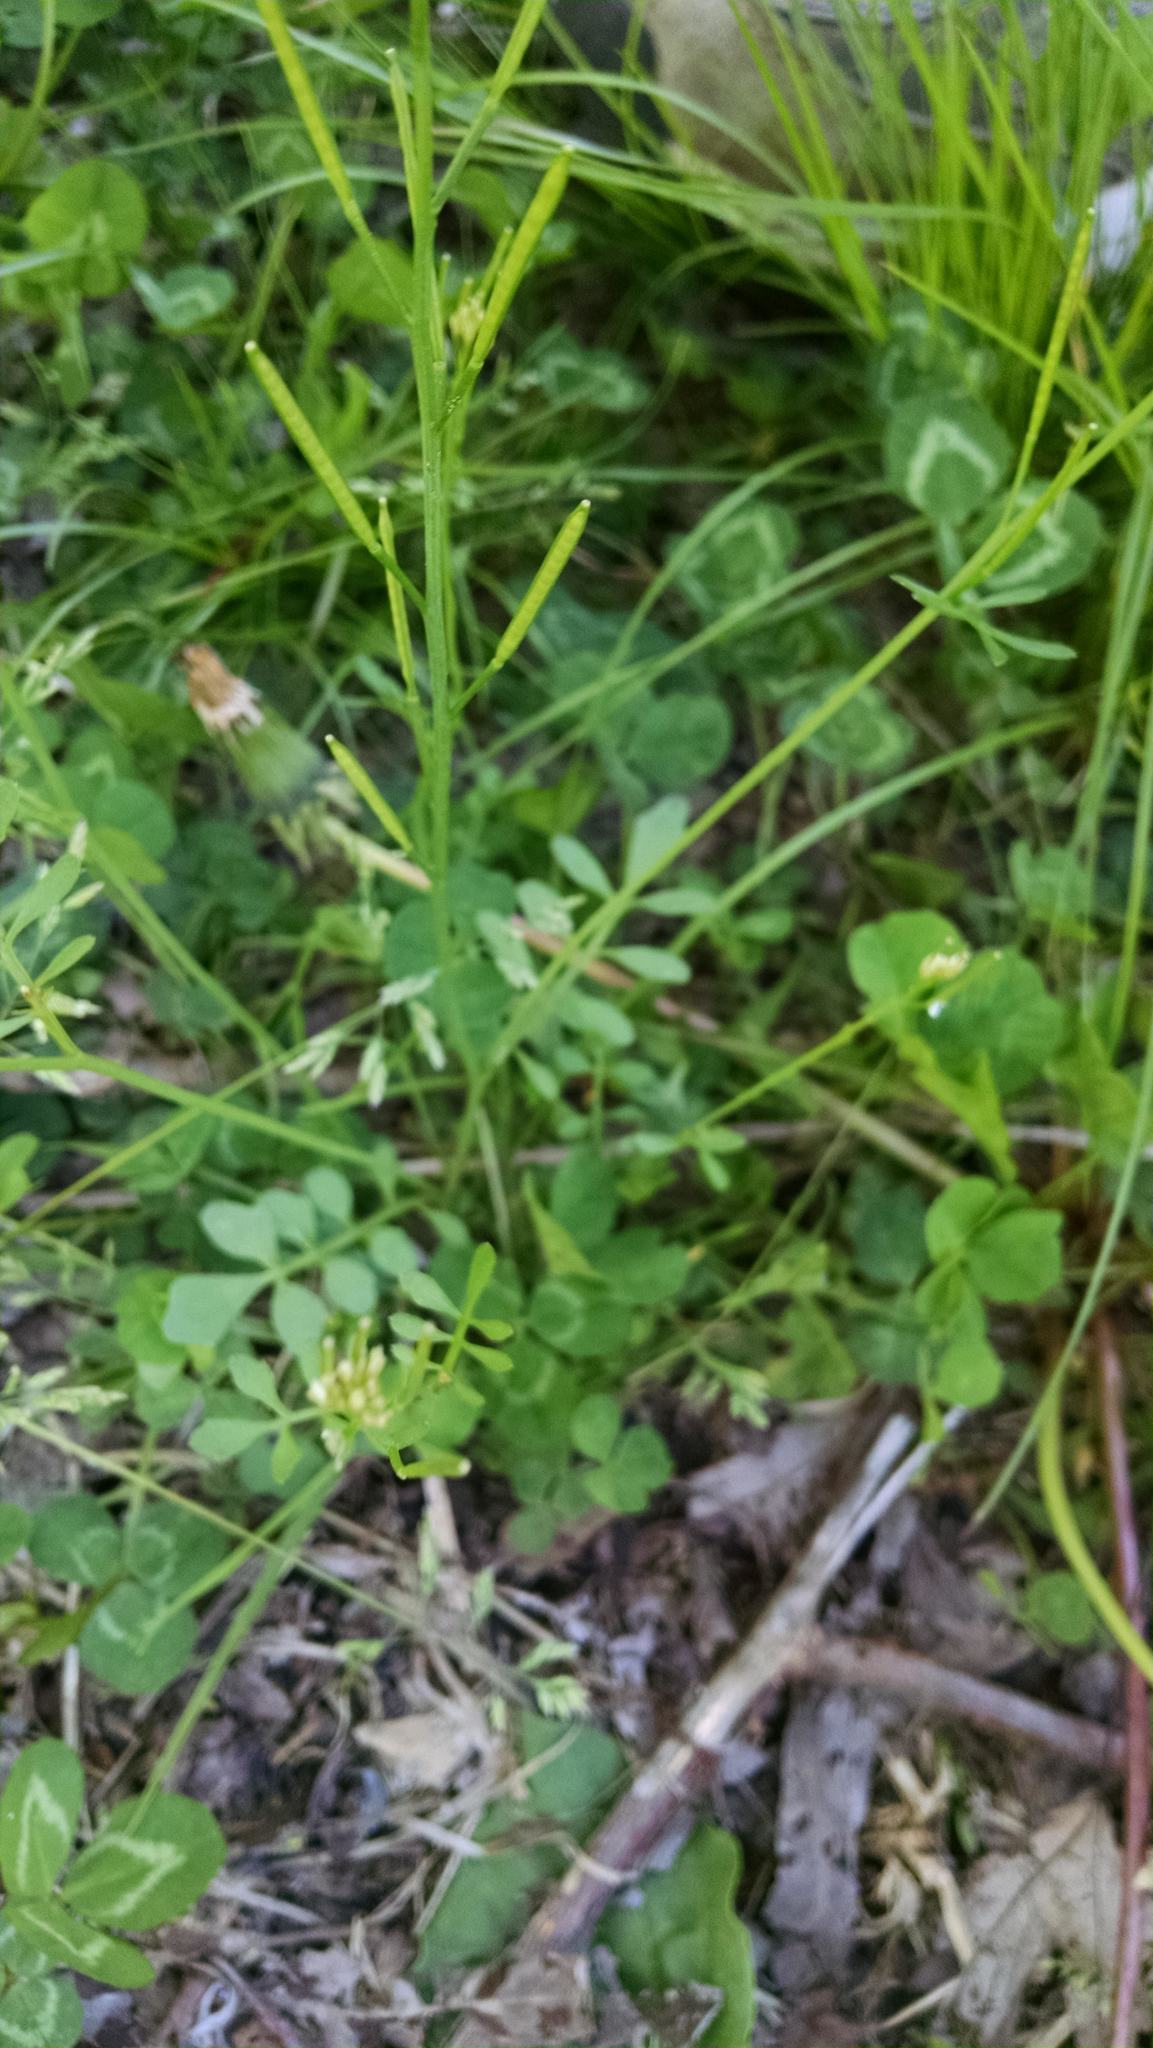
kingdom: Plantae
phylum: Tracheophyta
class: Magnoliopsida
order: Brassicales
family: Brassicaceae
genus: Cardamine
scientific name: Cardamine hirsuta
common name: Hairy bittercress
